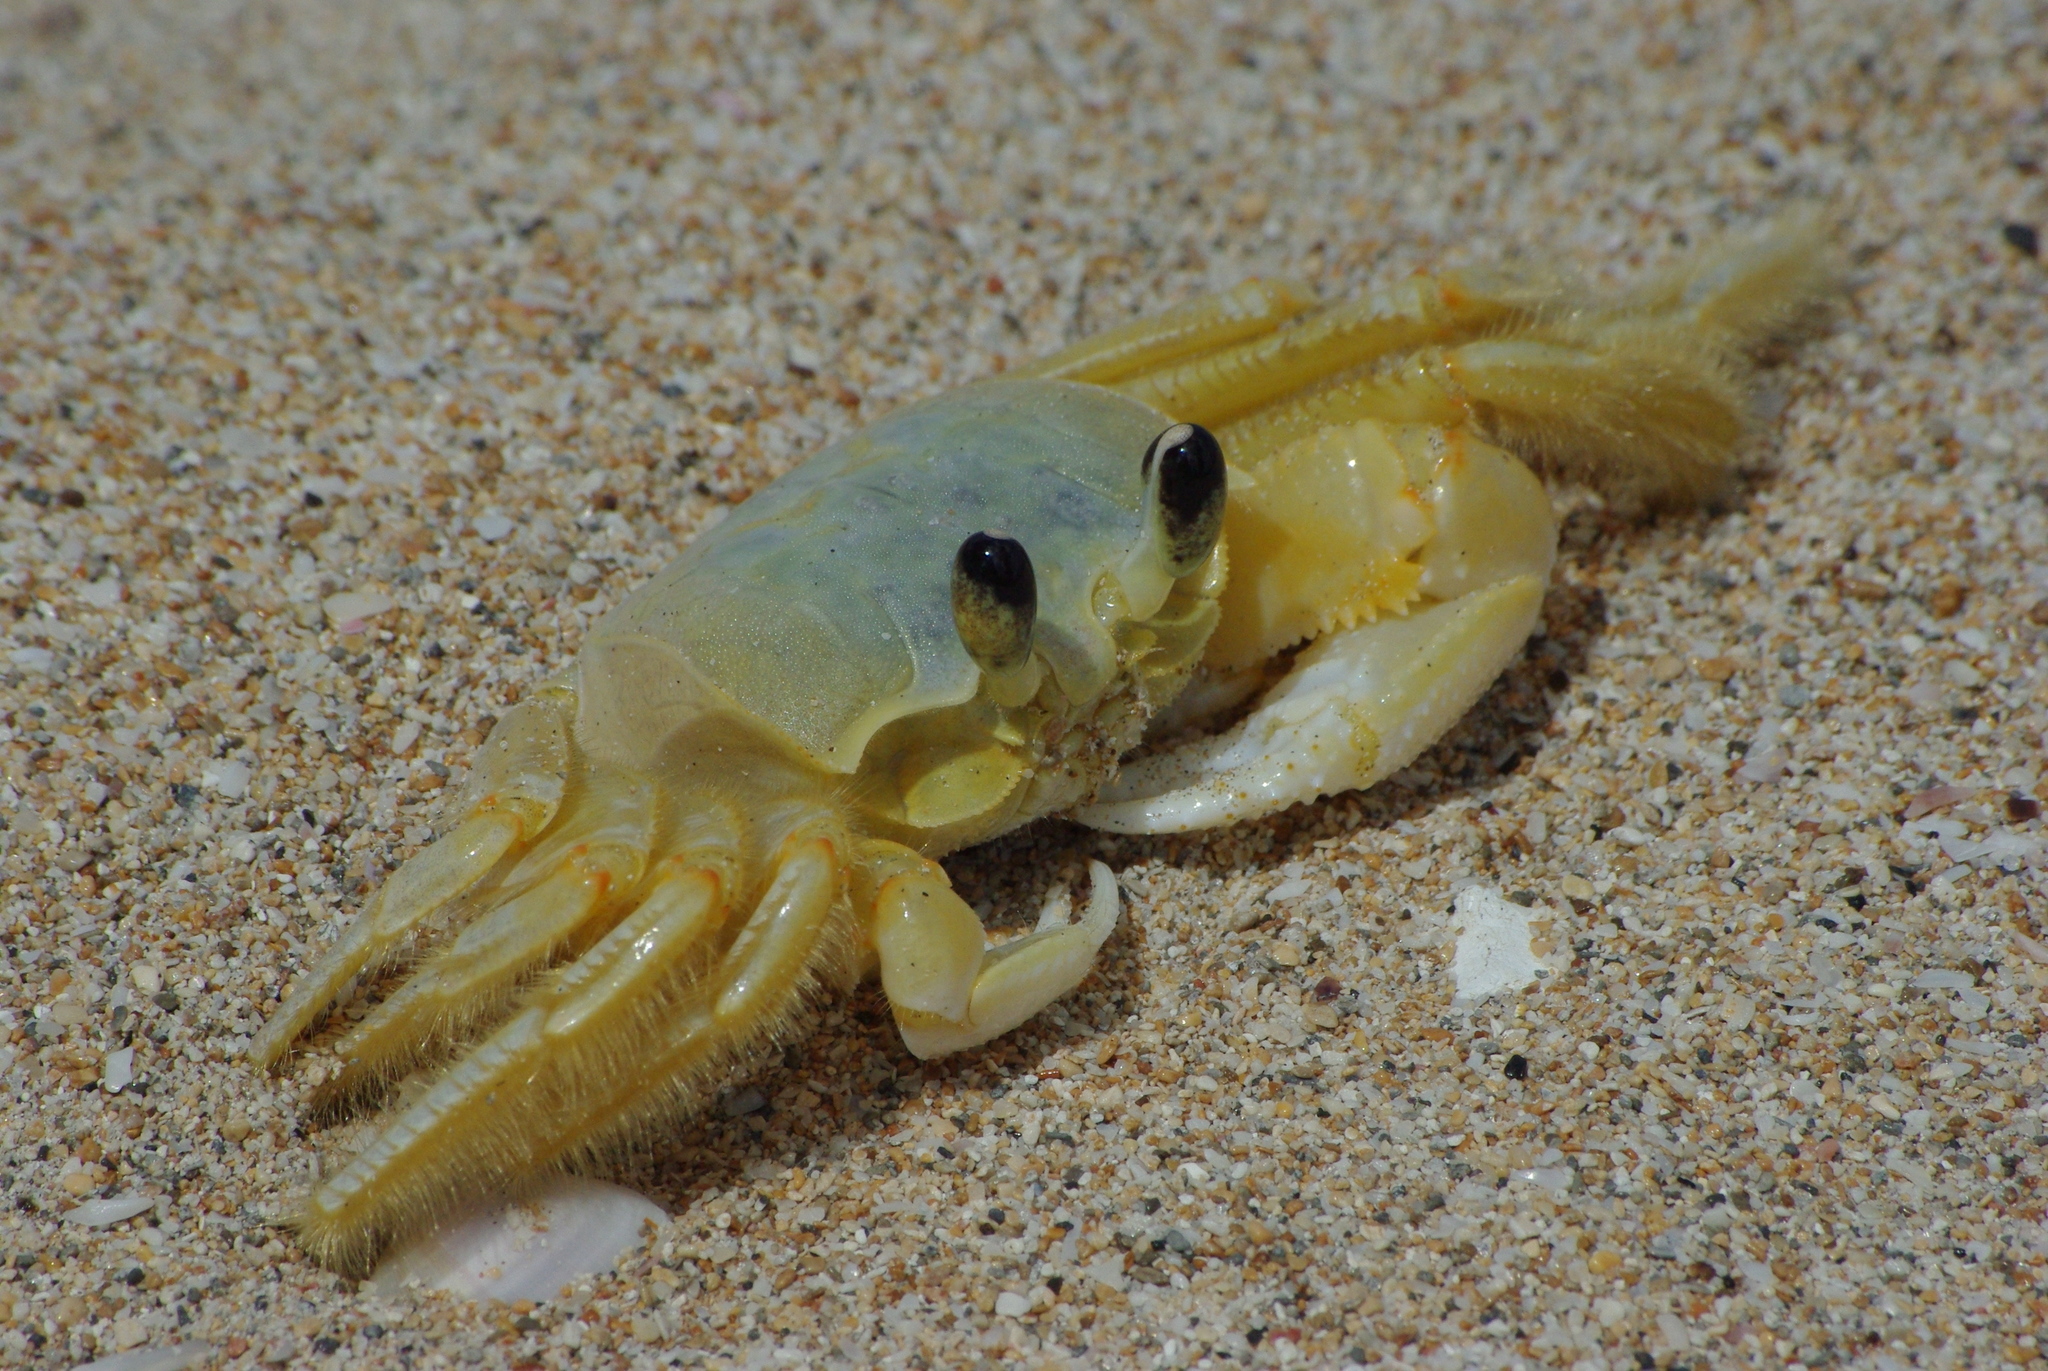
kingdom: Animalia
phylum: Arthropoda
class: Malacostraca
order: Decapoda
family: Ocypodidae
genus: Ocypode
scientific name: Ocypode quadrata
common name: Ghost crab
